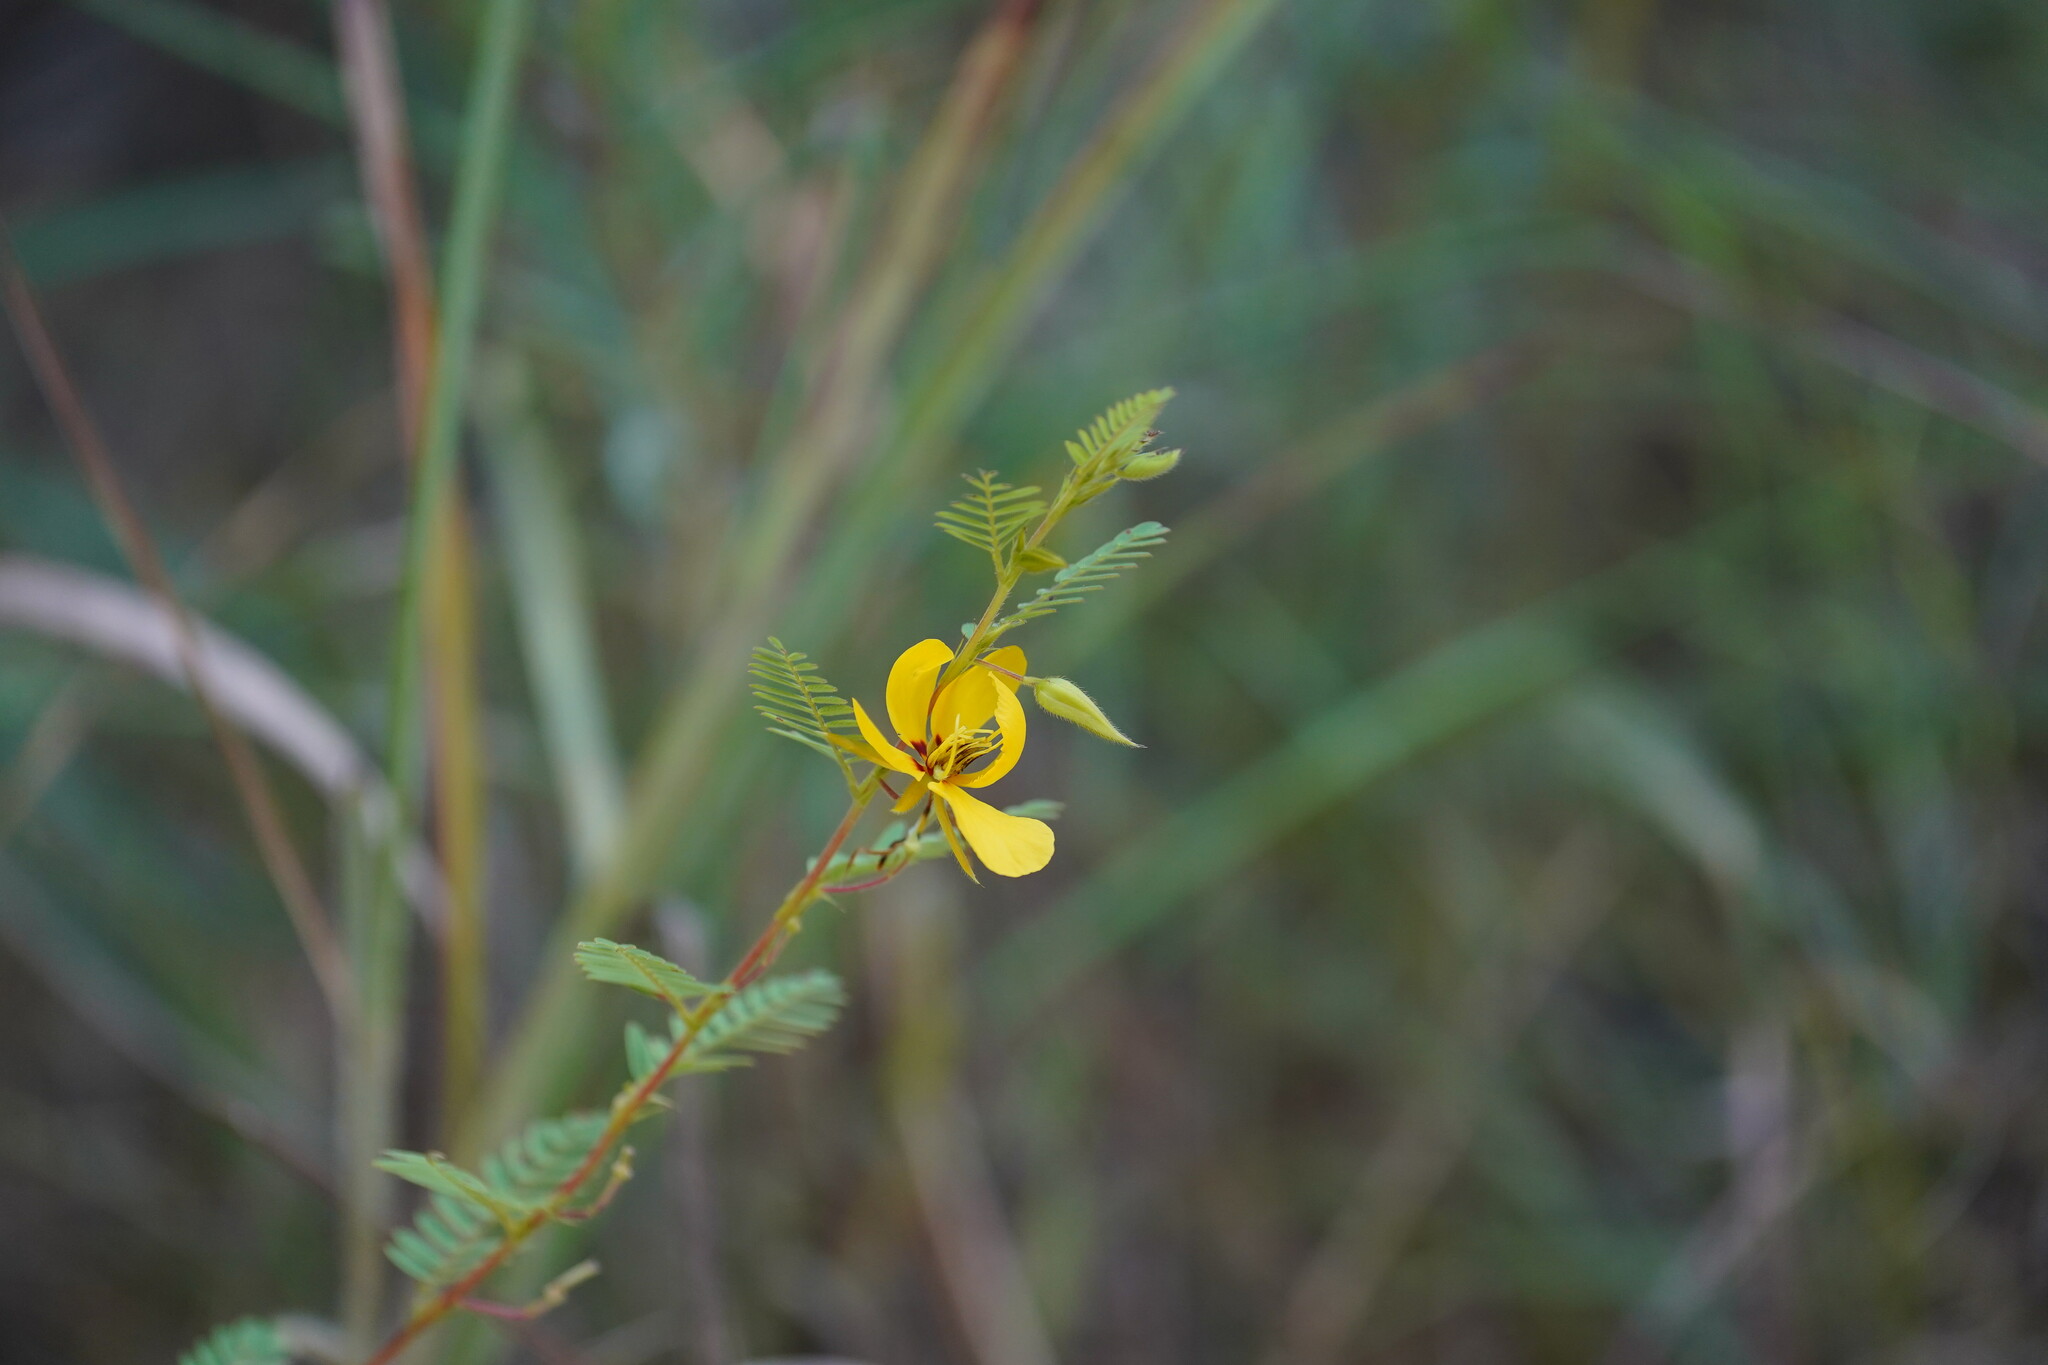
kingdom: Plantae
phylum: Tracheophyta
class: Magnoliopsida
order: Fabales
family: Fabaceae
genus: Chamaecrista
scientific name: Chamaecrista fasciculata
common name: Golden cassia
